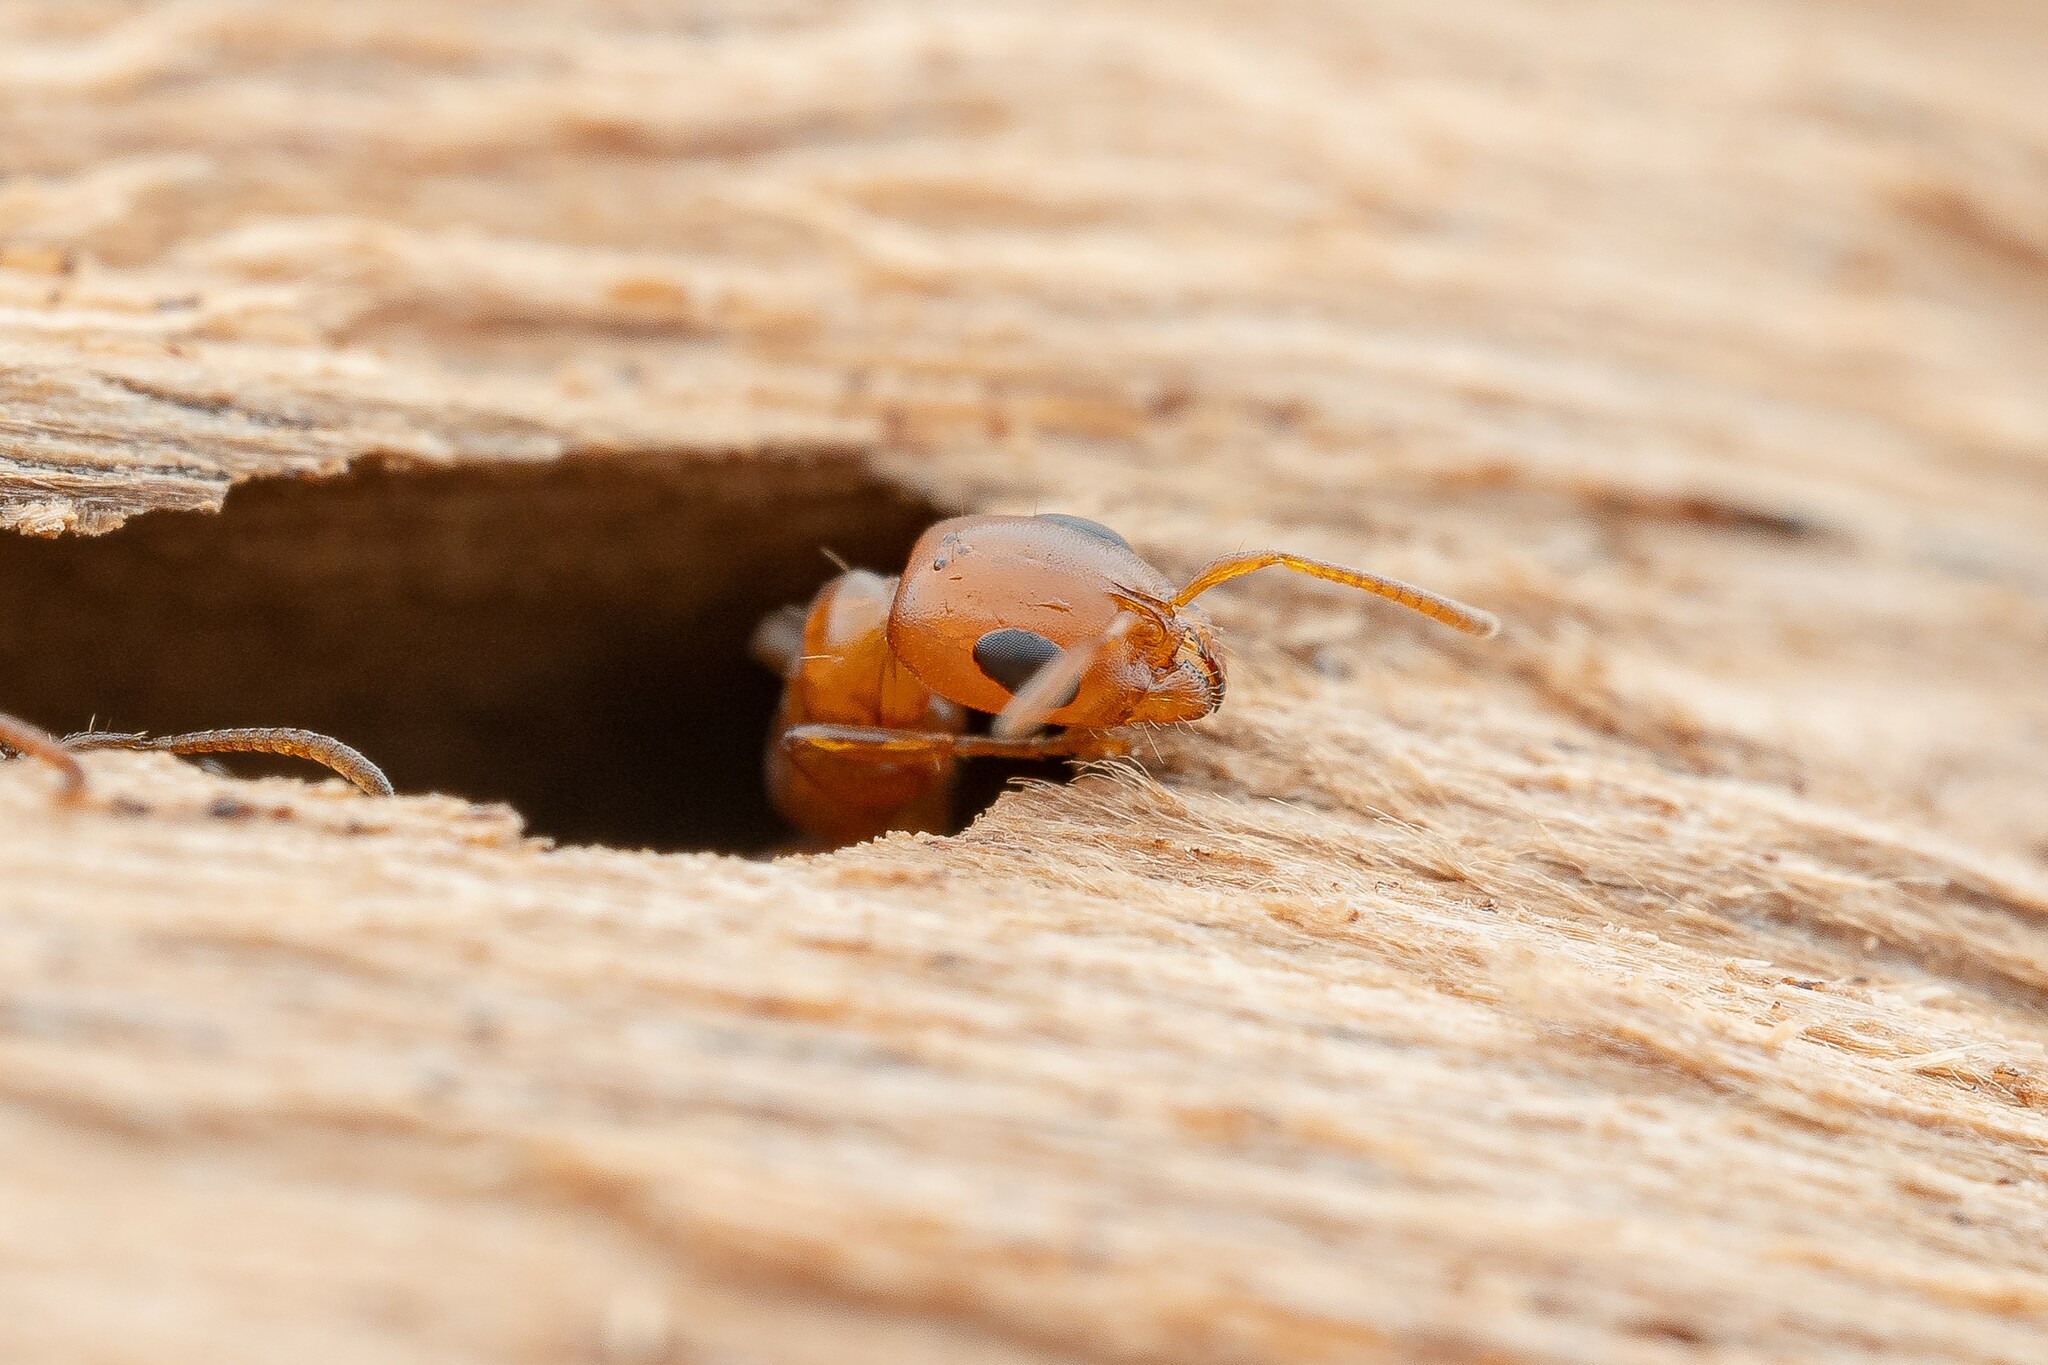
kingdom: Animalia
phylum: Arthropoda
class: Insecta
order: Hymenoptera
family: Formicidae
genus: Pseudomyrmex
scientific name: Pseudomyrmex apache
